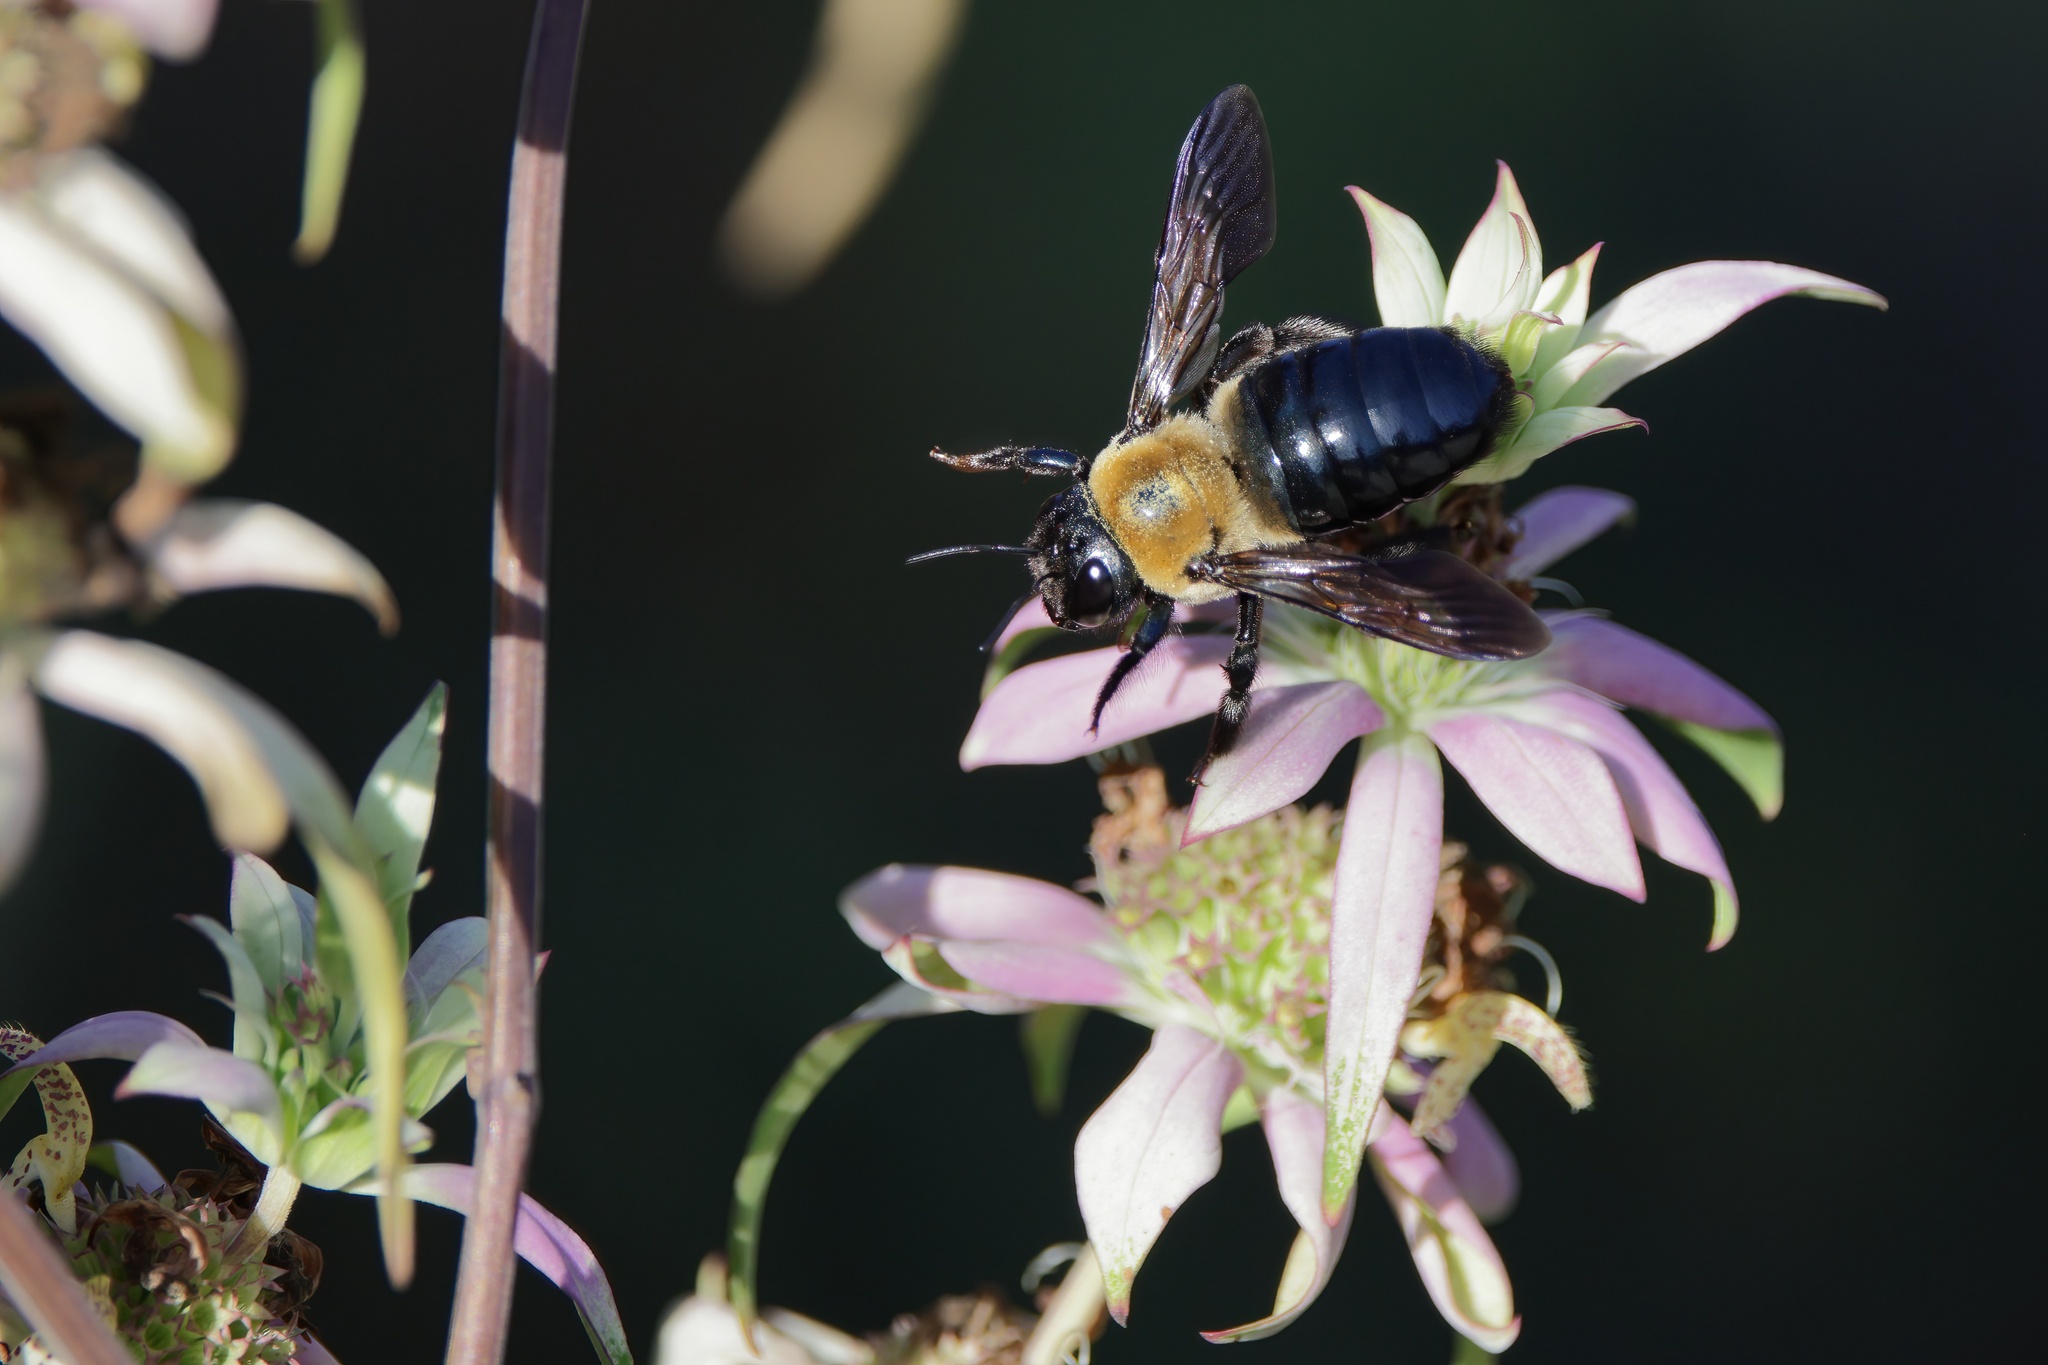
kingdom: Animalia
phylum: Arthropoda
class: Insecta
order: Hymenoptera
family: Apidae
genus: Xylocopa
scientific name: Xylocopa virginica
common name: Carpenter bee
